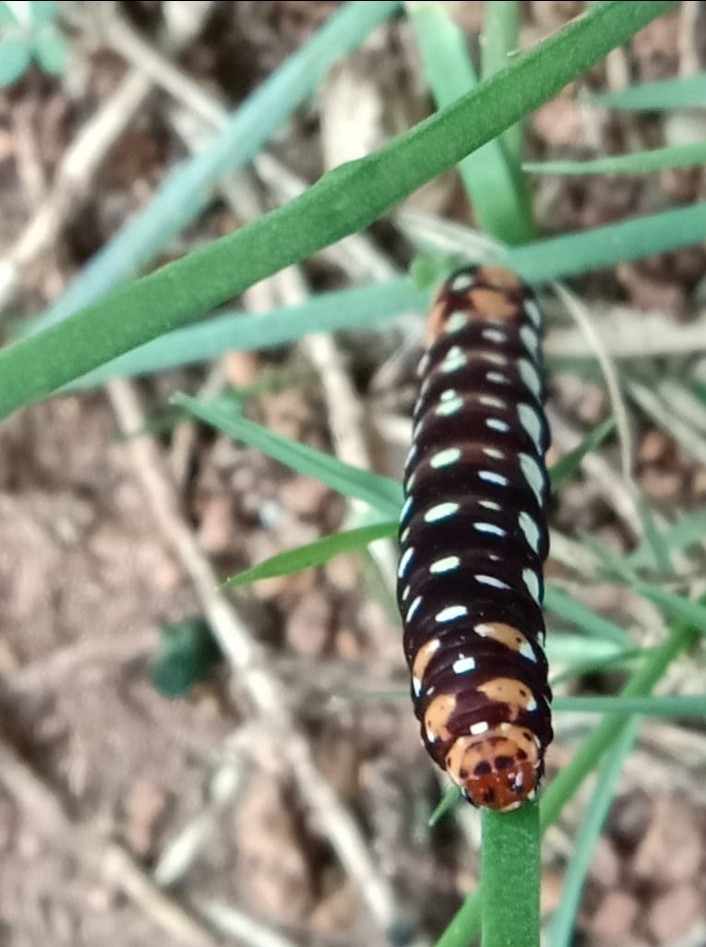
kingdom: Animalia
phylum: Arthropoda
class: Insecta
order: Lepidoptera
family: Noctuidae
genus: Polytela
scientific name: Polytela gloriosae
